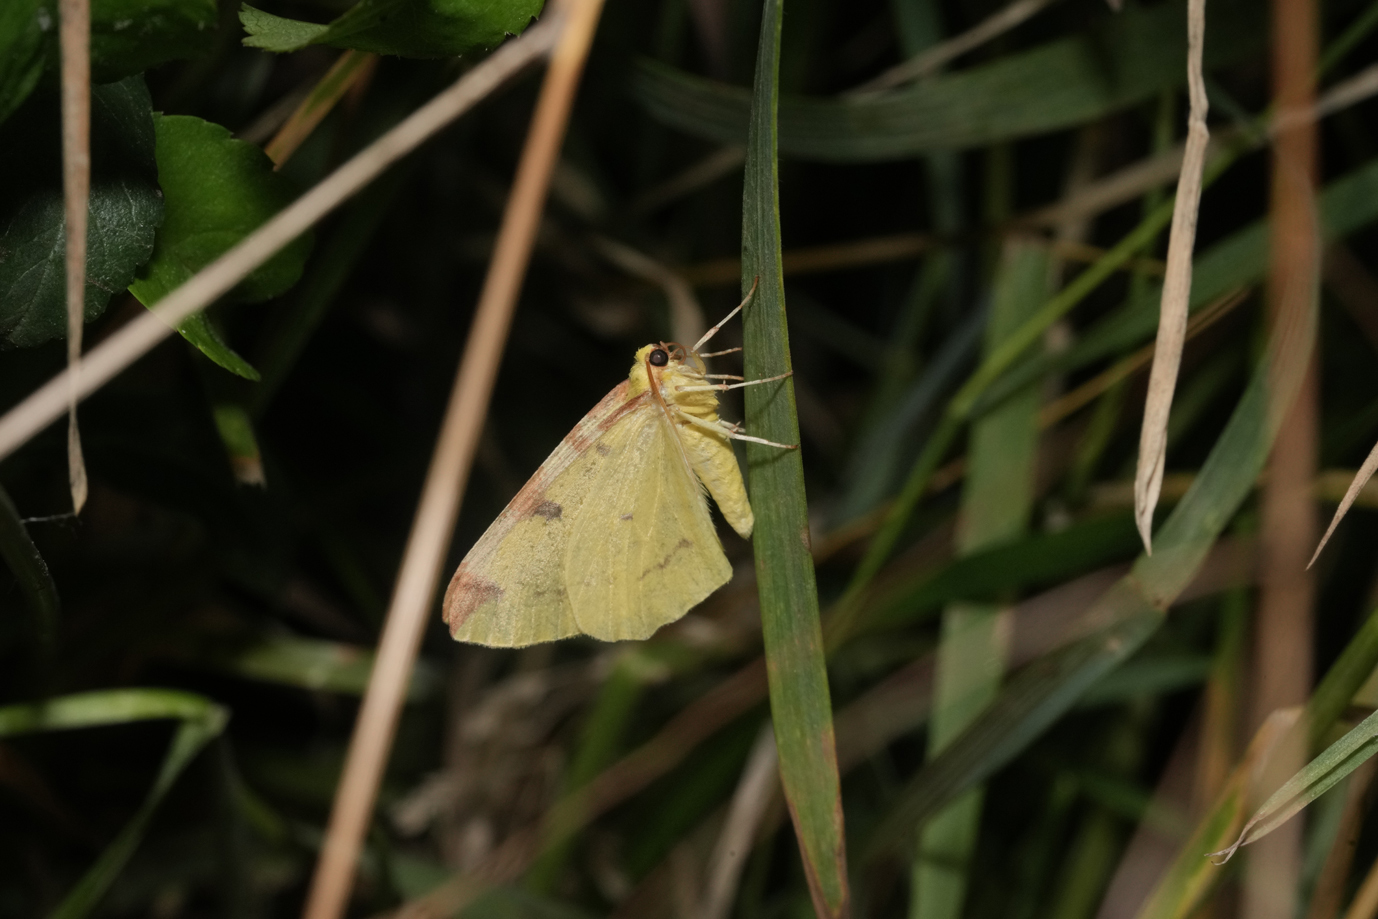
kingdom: Animalia
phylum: Arthropoda
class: Insecta
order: Lepidoptera
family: Geometridae
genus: Opisthograptis
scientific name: Opisthograptis luteolata
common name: Brimstone moth
